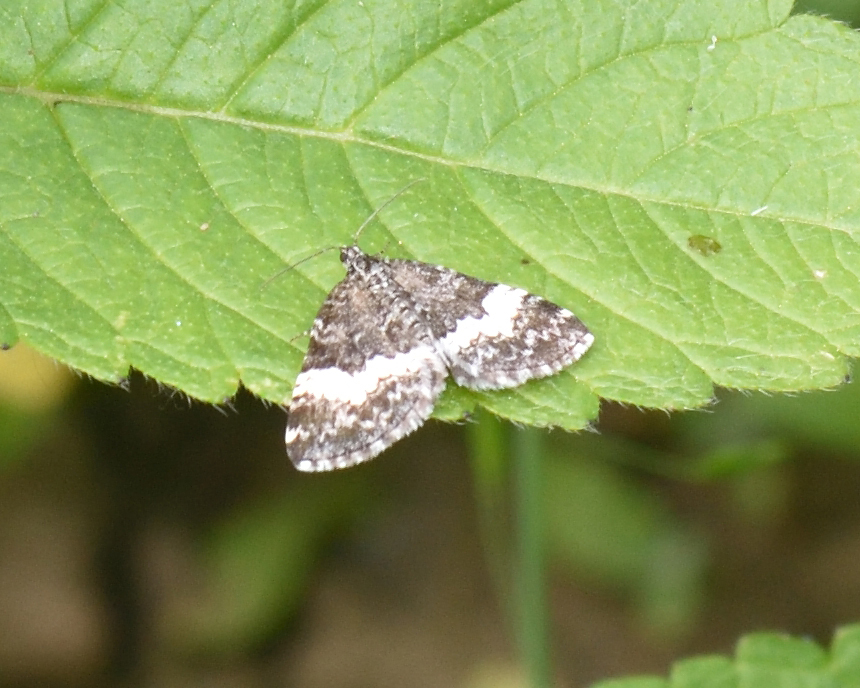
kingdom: Animalia
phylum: Arthropoda
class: Insecta
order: Lepidoptera
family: Geometridae
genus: Spargania
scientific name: Spargania luctuata
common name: White-banded carpet
